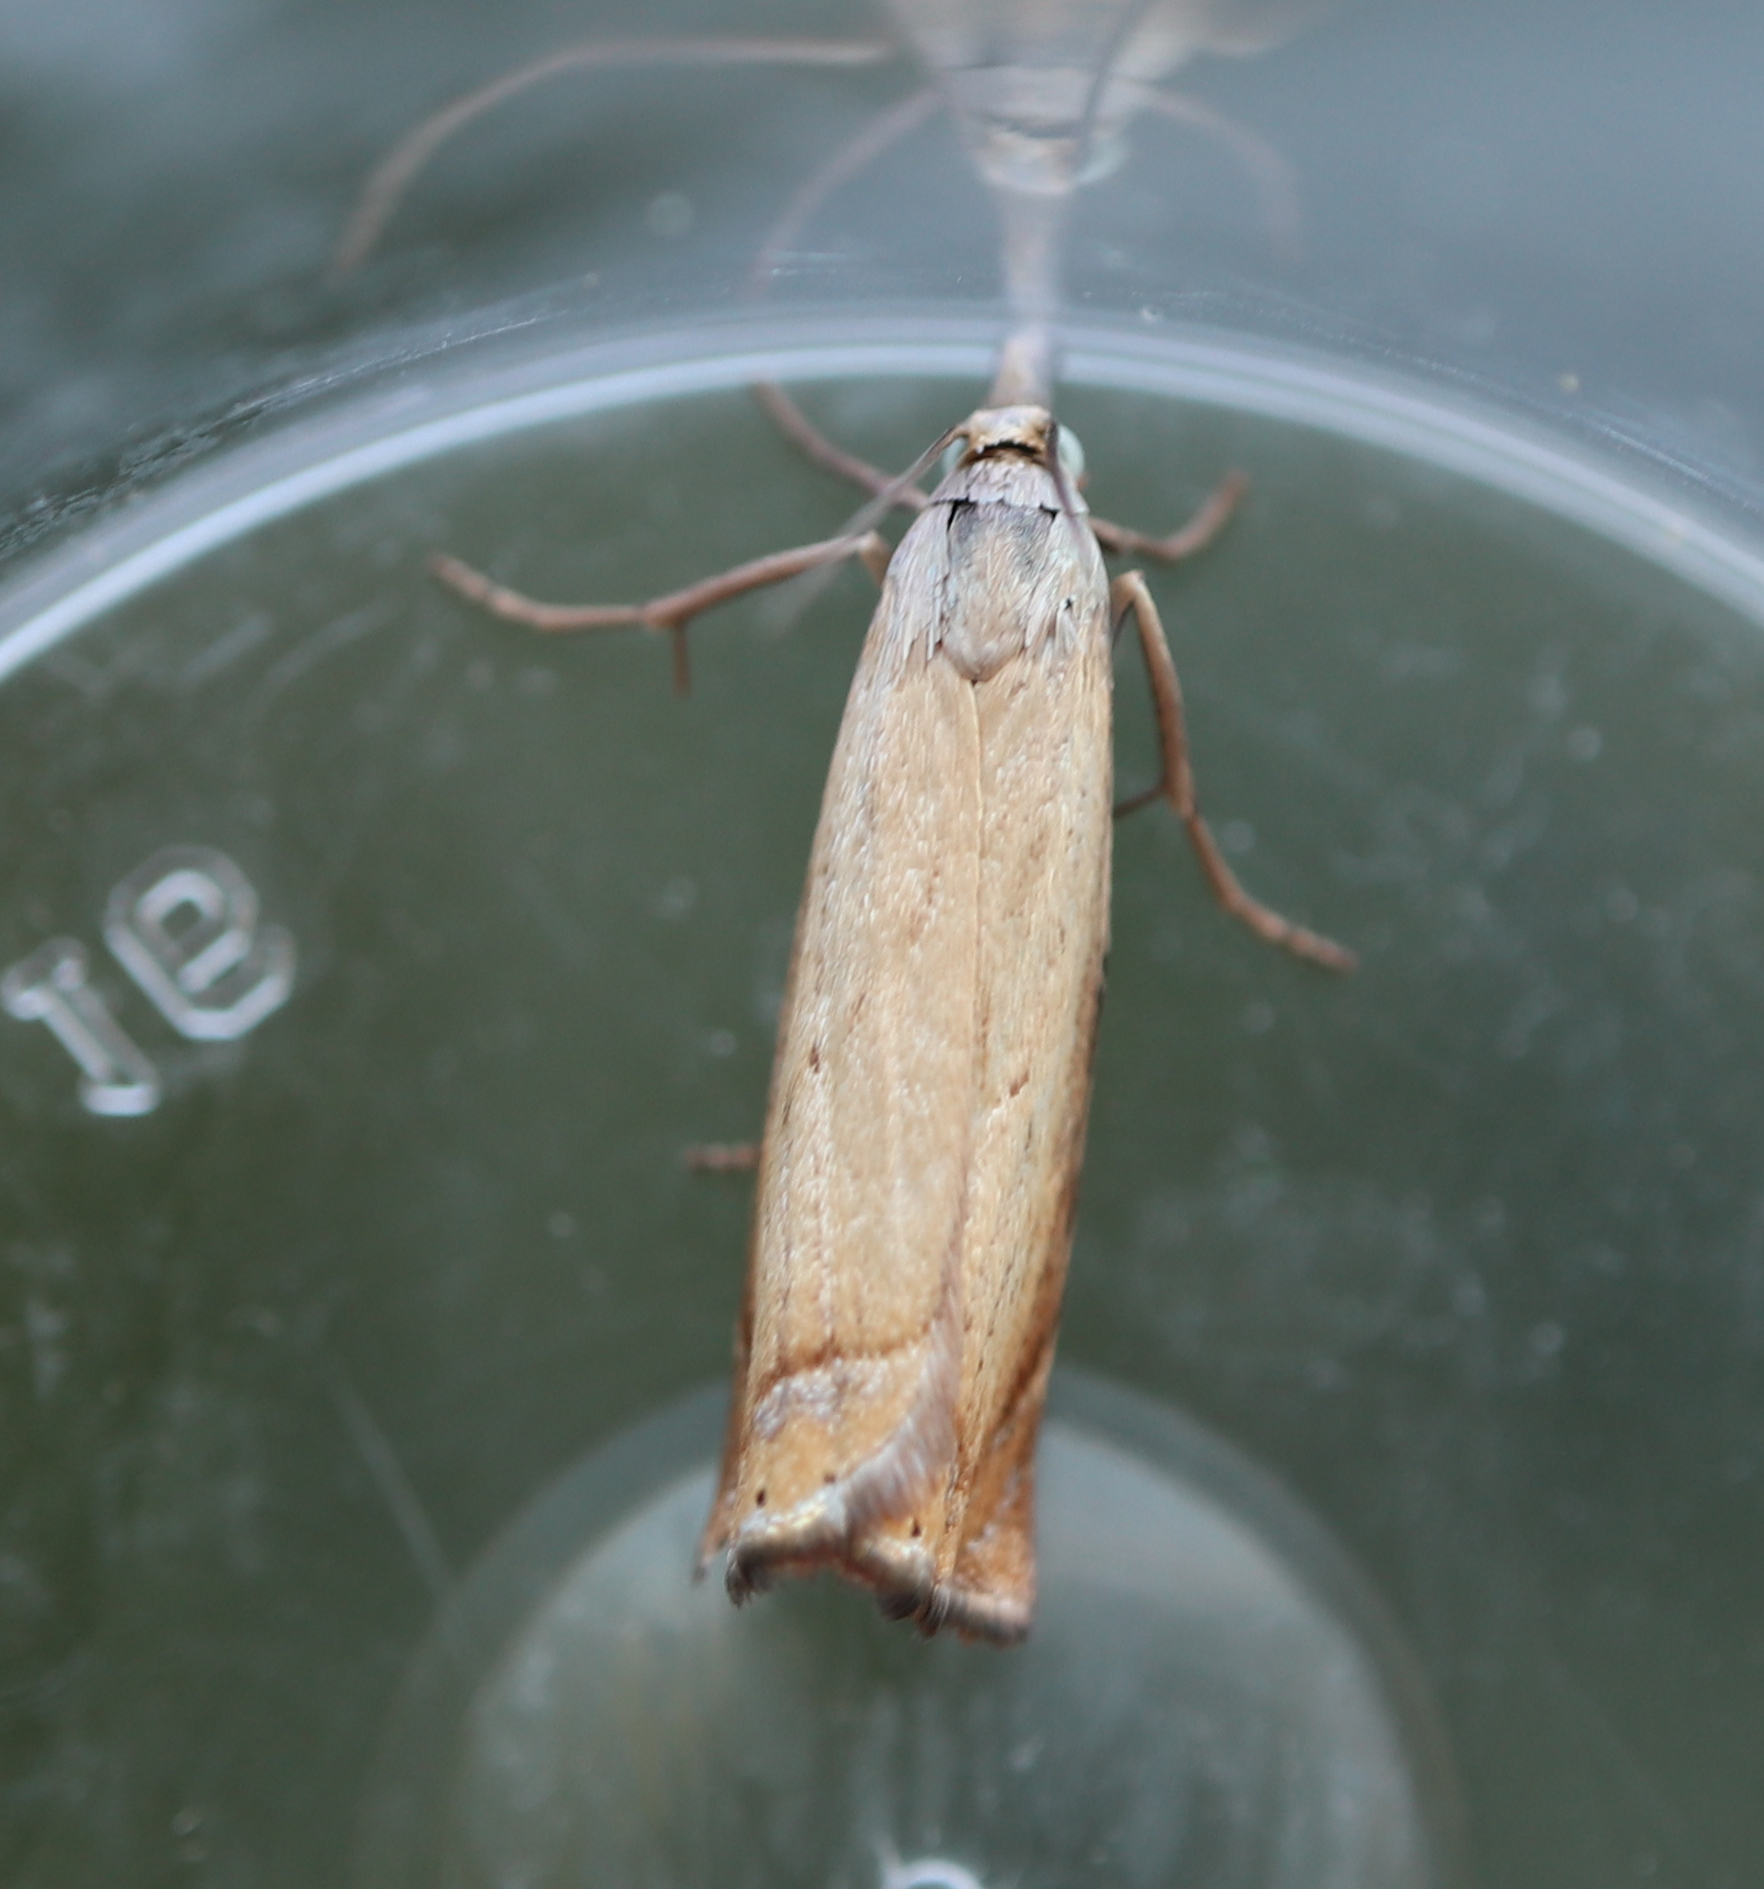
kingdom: Animalia
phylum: Arthropoda
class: Insecta
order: Lepidoptera
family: Crambidae
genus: Chrysoteuchia
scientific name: Chrysoteuchia culmella
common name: Garden grass-veneer
